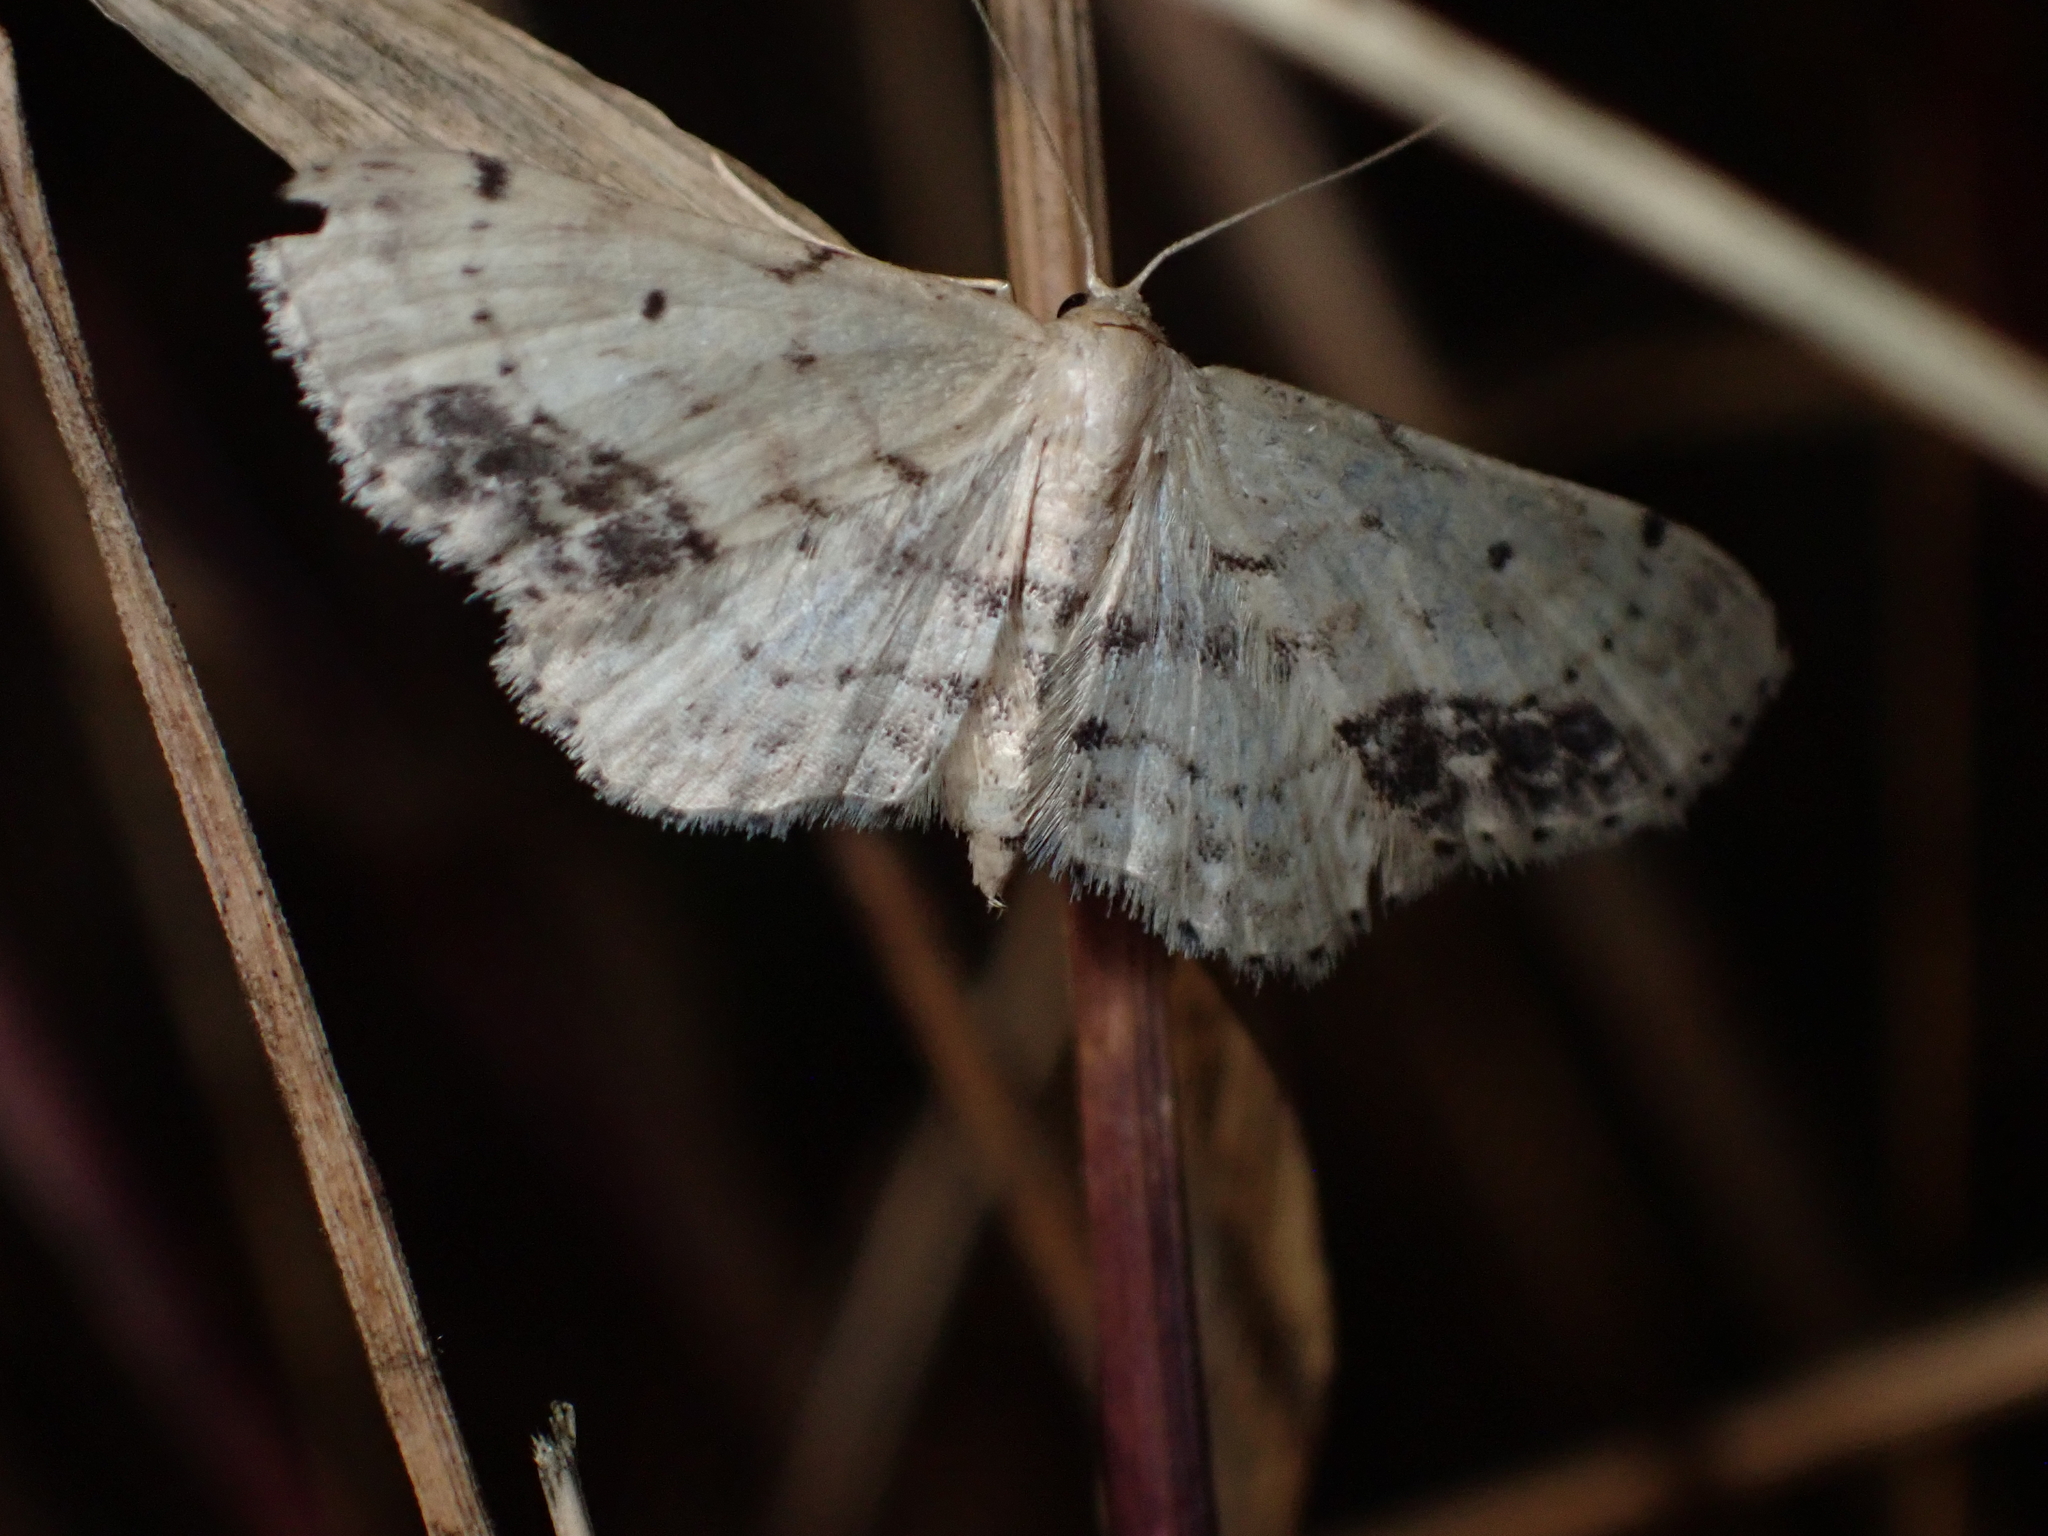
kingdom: Animalia
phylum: Arthropoda
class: Insecta
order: Lepidoptera
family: Geometridae
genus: Idaea
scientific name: Idaea dimidiata
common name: Single-dotted wave
